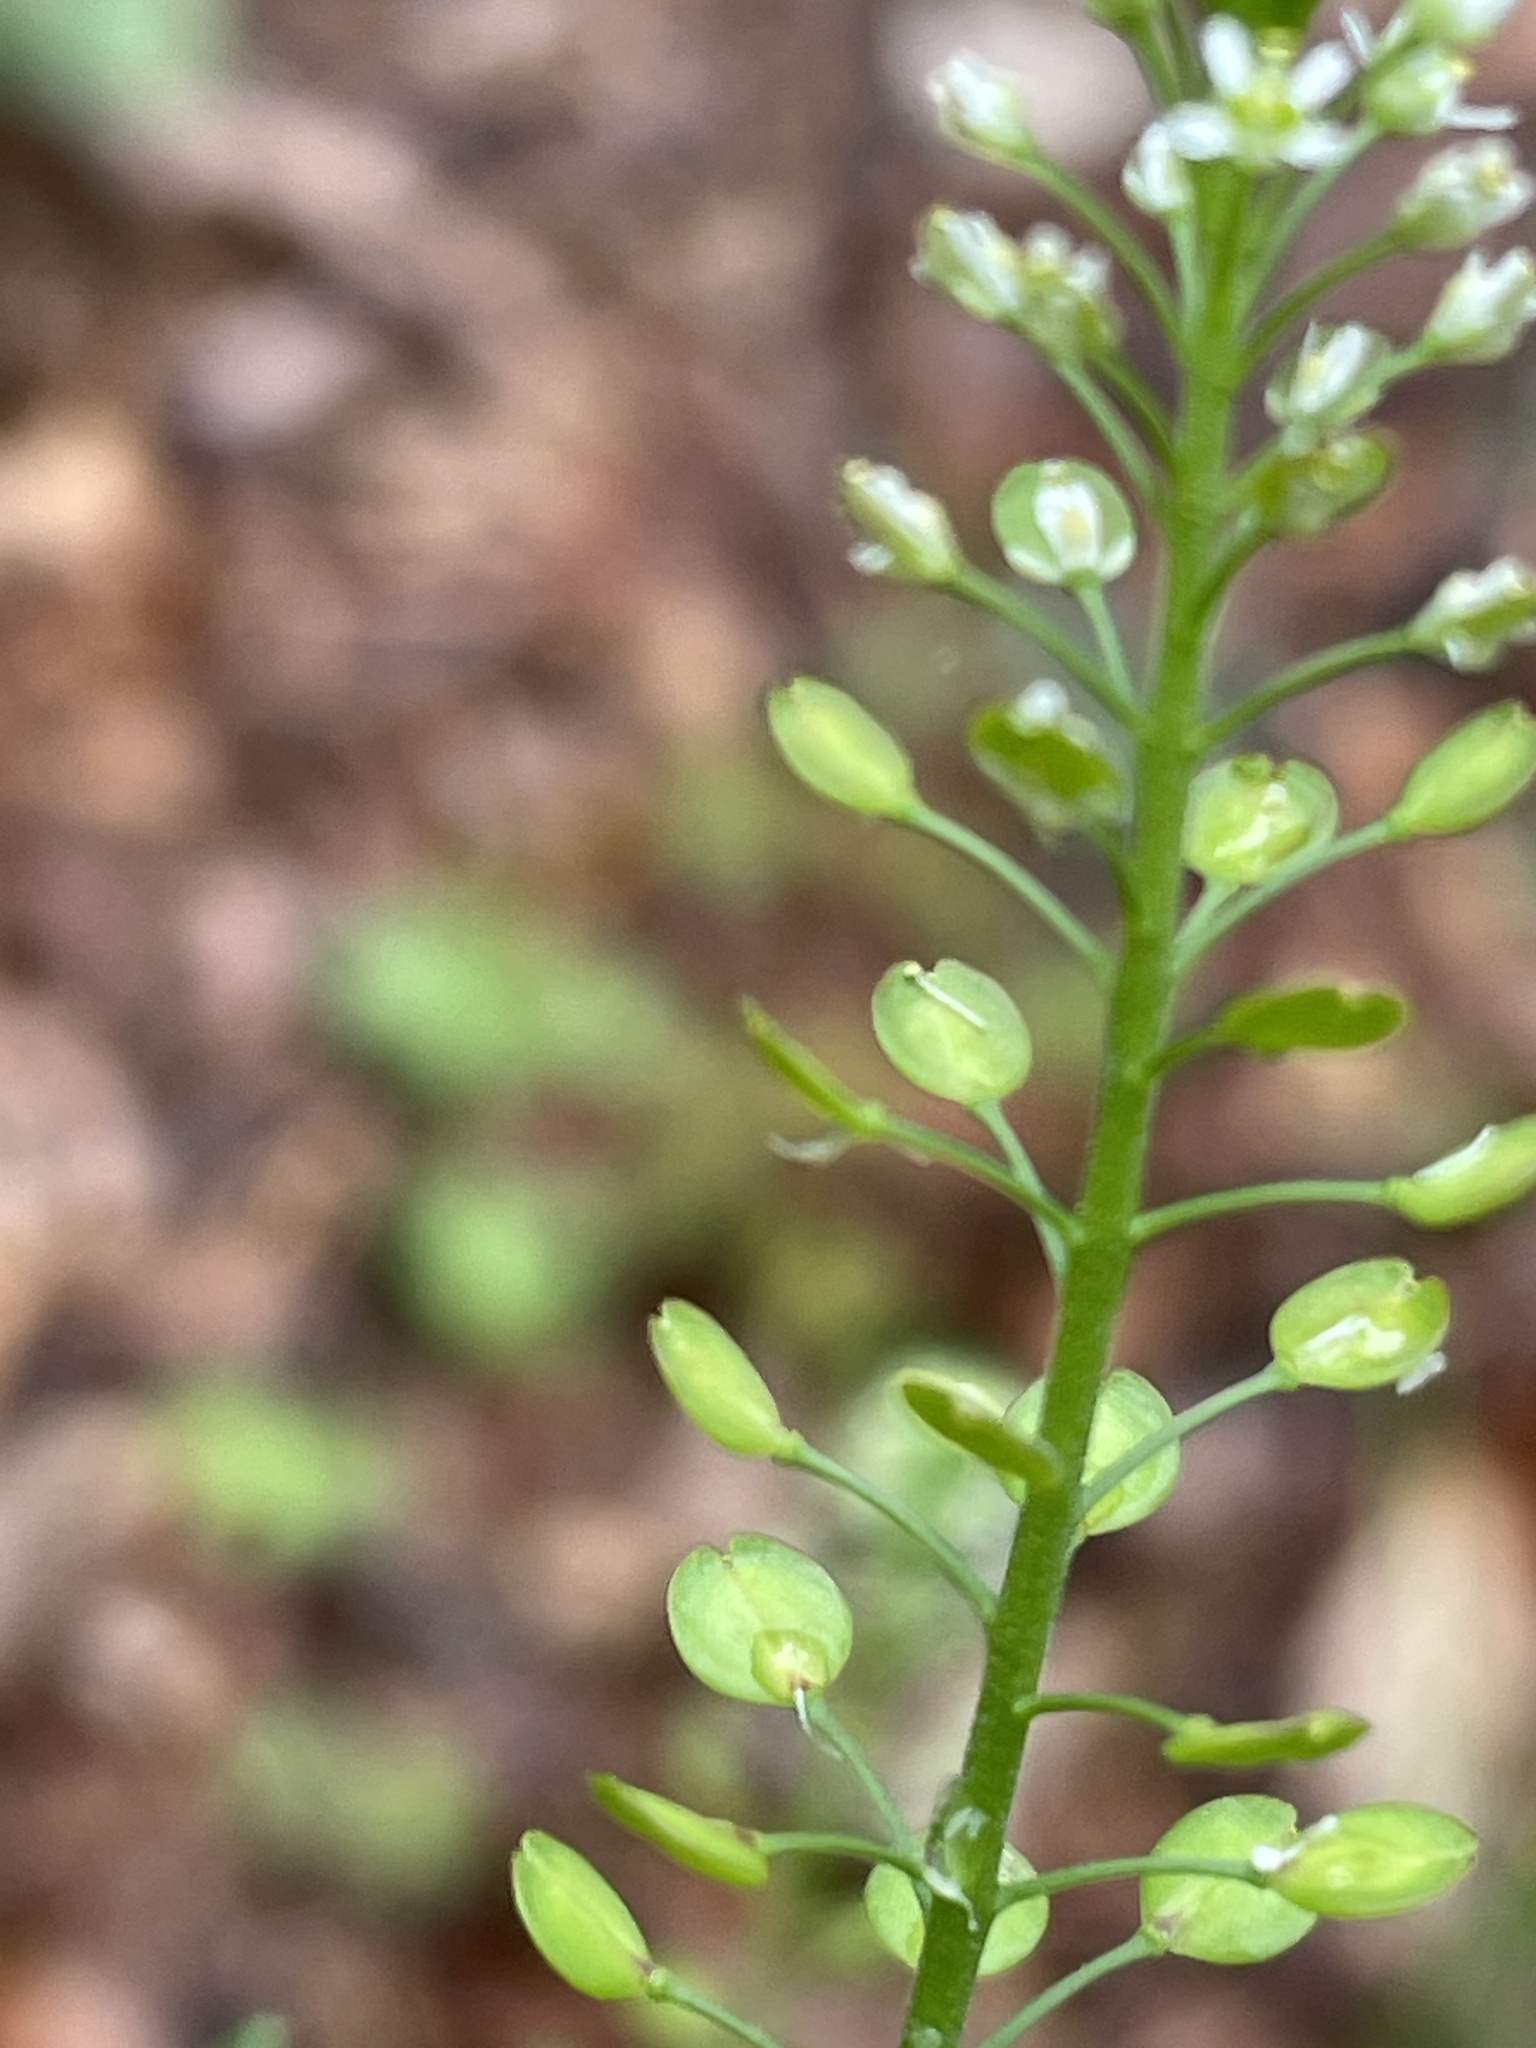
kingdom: Plantae
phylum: Tracheophyta
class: Magnoliopsida
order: Brassicales
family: Brassicaceae
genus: Lepidium
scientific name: Lepidium virginicum
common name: Least pepperwort
